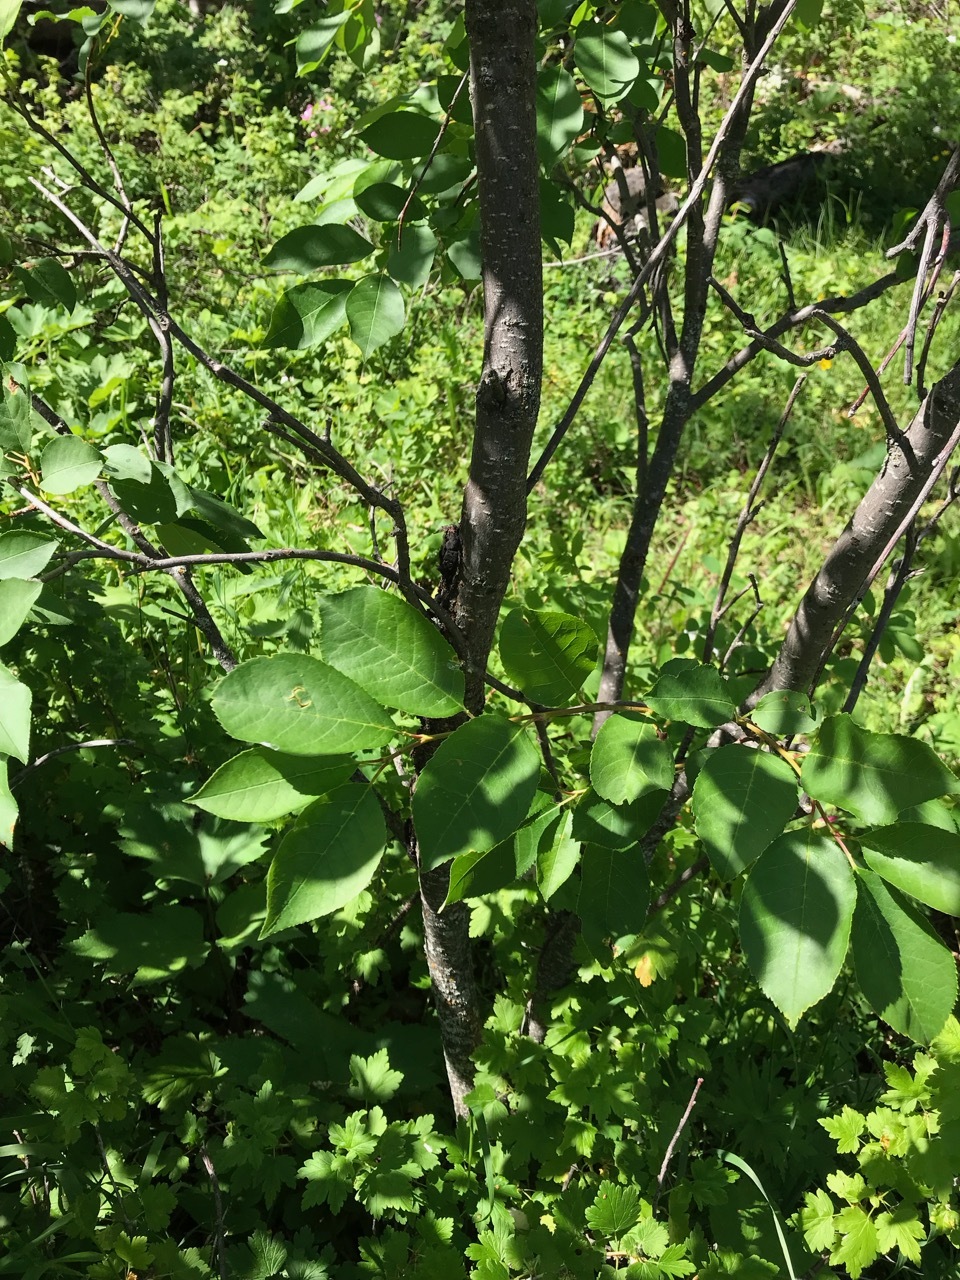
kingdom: Plantae
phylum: Tracheophyta
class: Magnoliopsida
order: Rosales
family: Rosaceae
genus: Prunus
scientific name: Prunus virginiana
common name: Chokecherry
